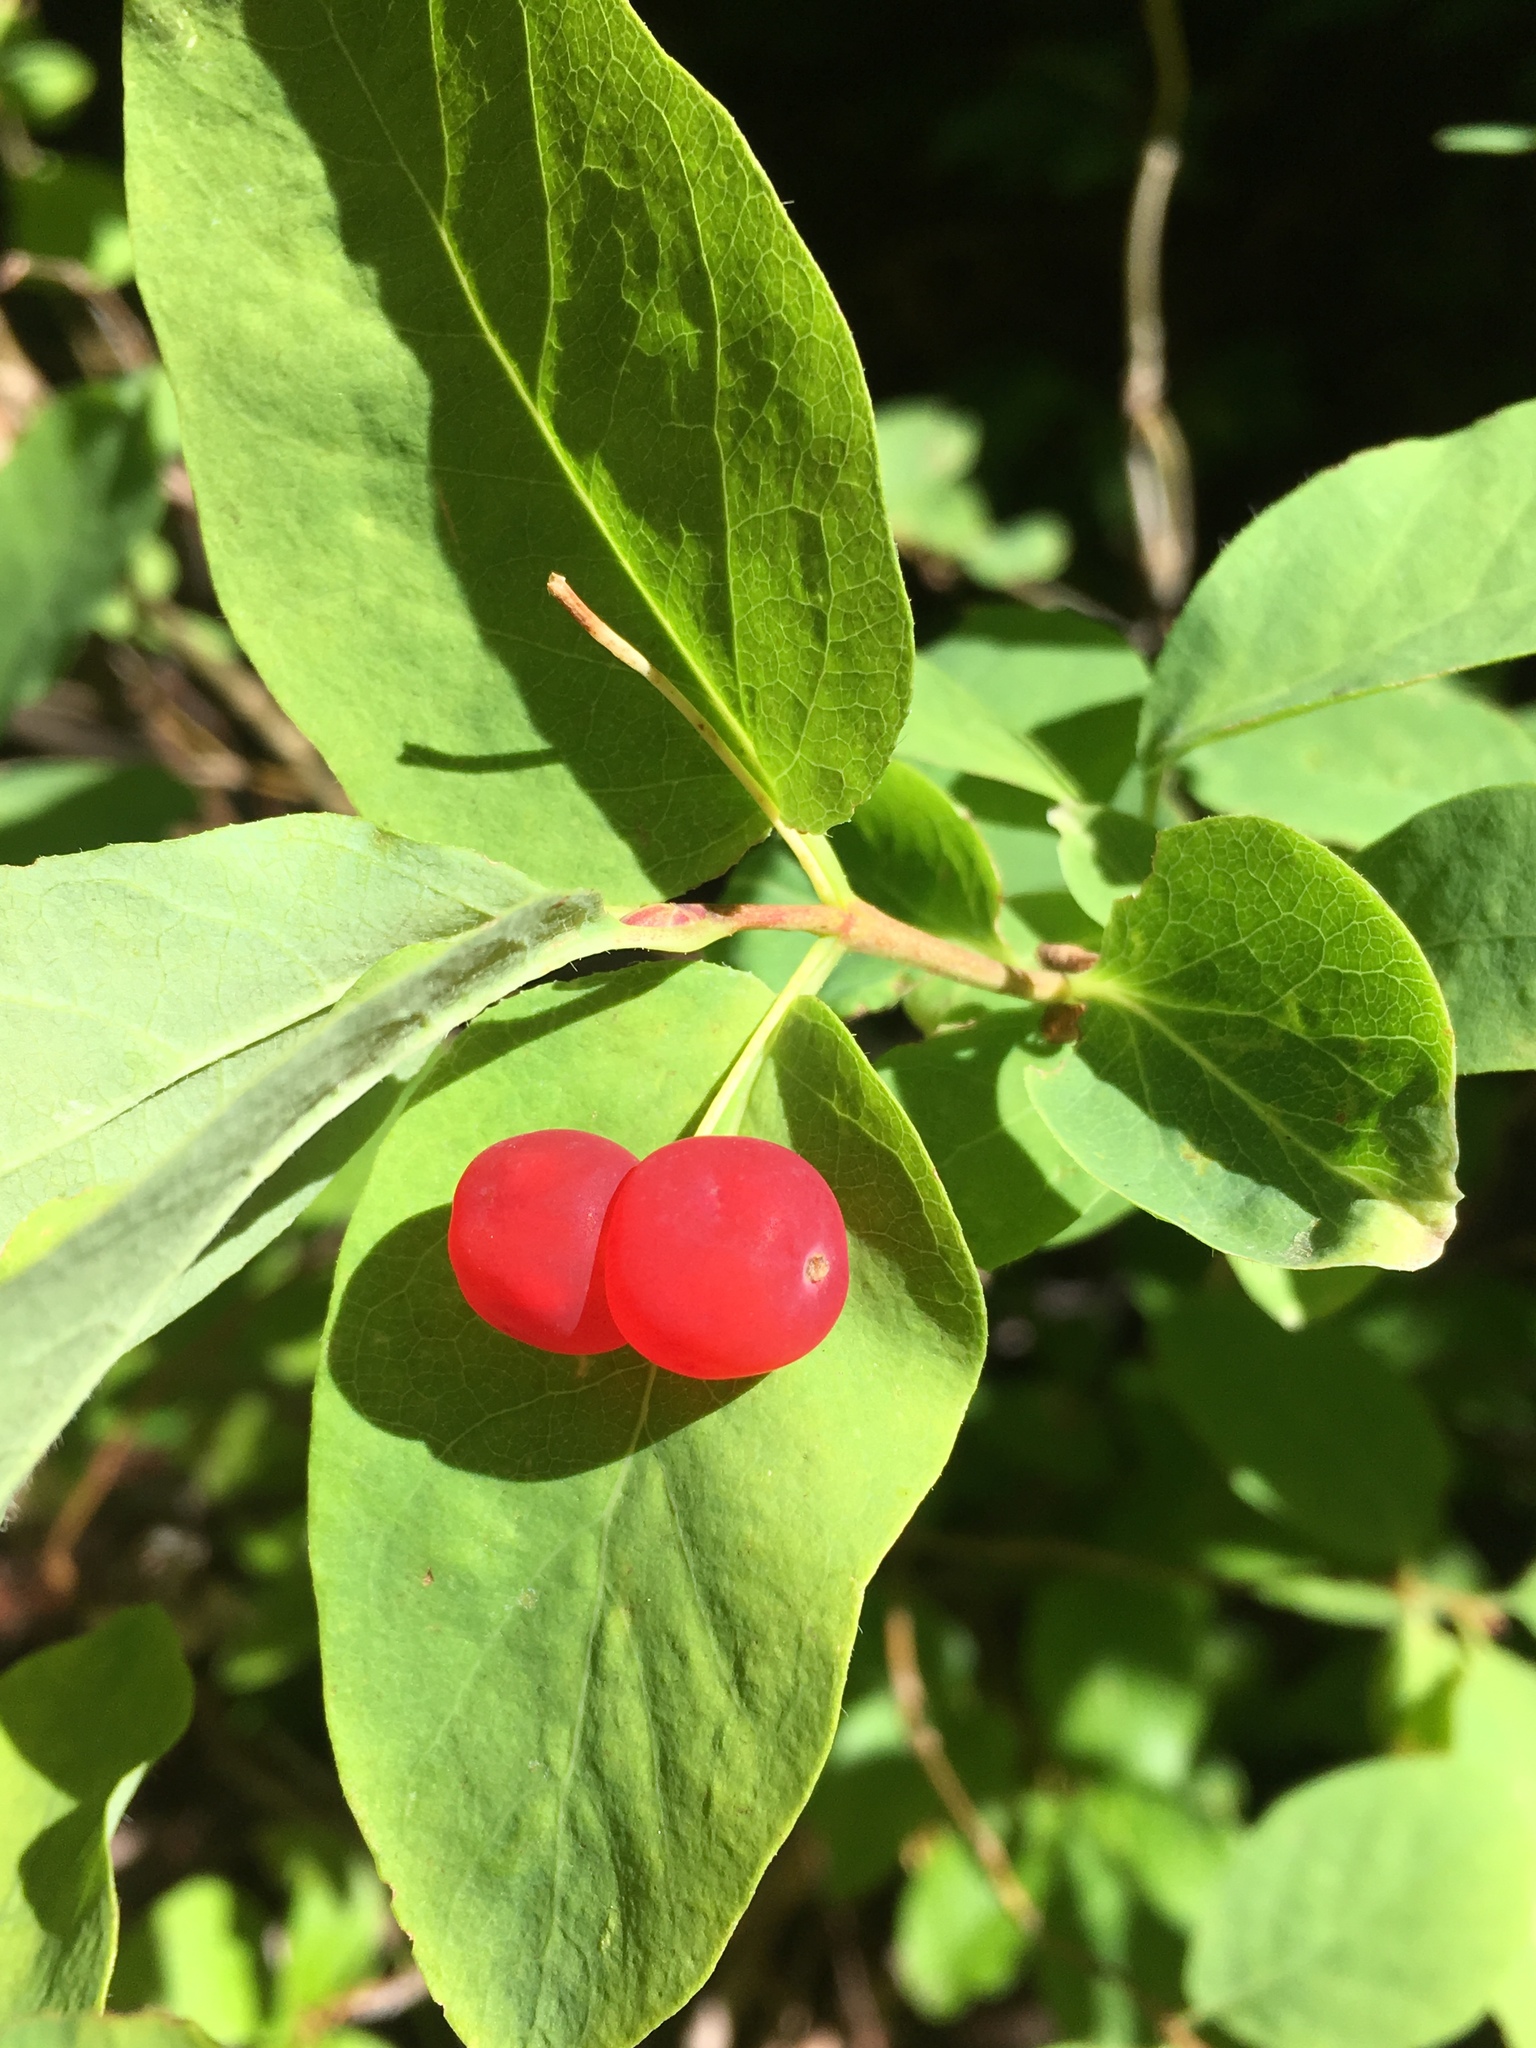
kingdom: Plantae
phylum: Tracheophyta
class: Magnoliopsida
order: Dipsacales
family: Caprifoliaceae
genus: Lonicera
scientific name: Lonicera utahensis
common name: Utah honeysuckle
